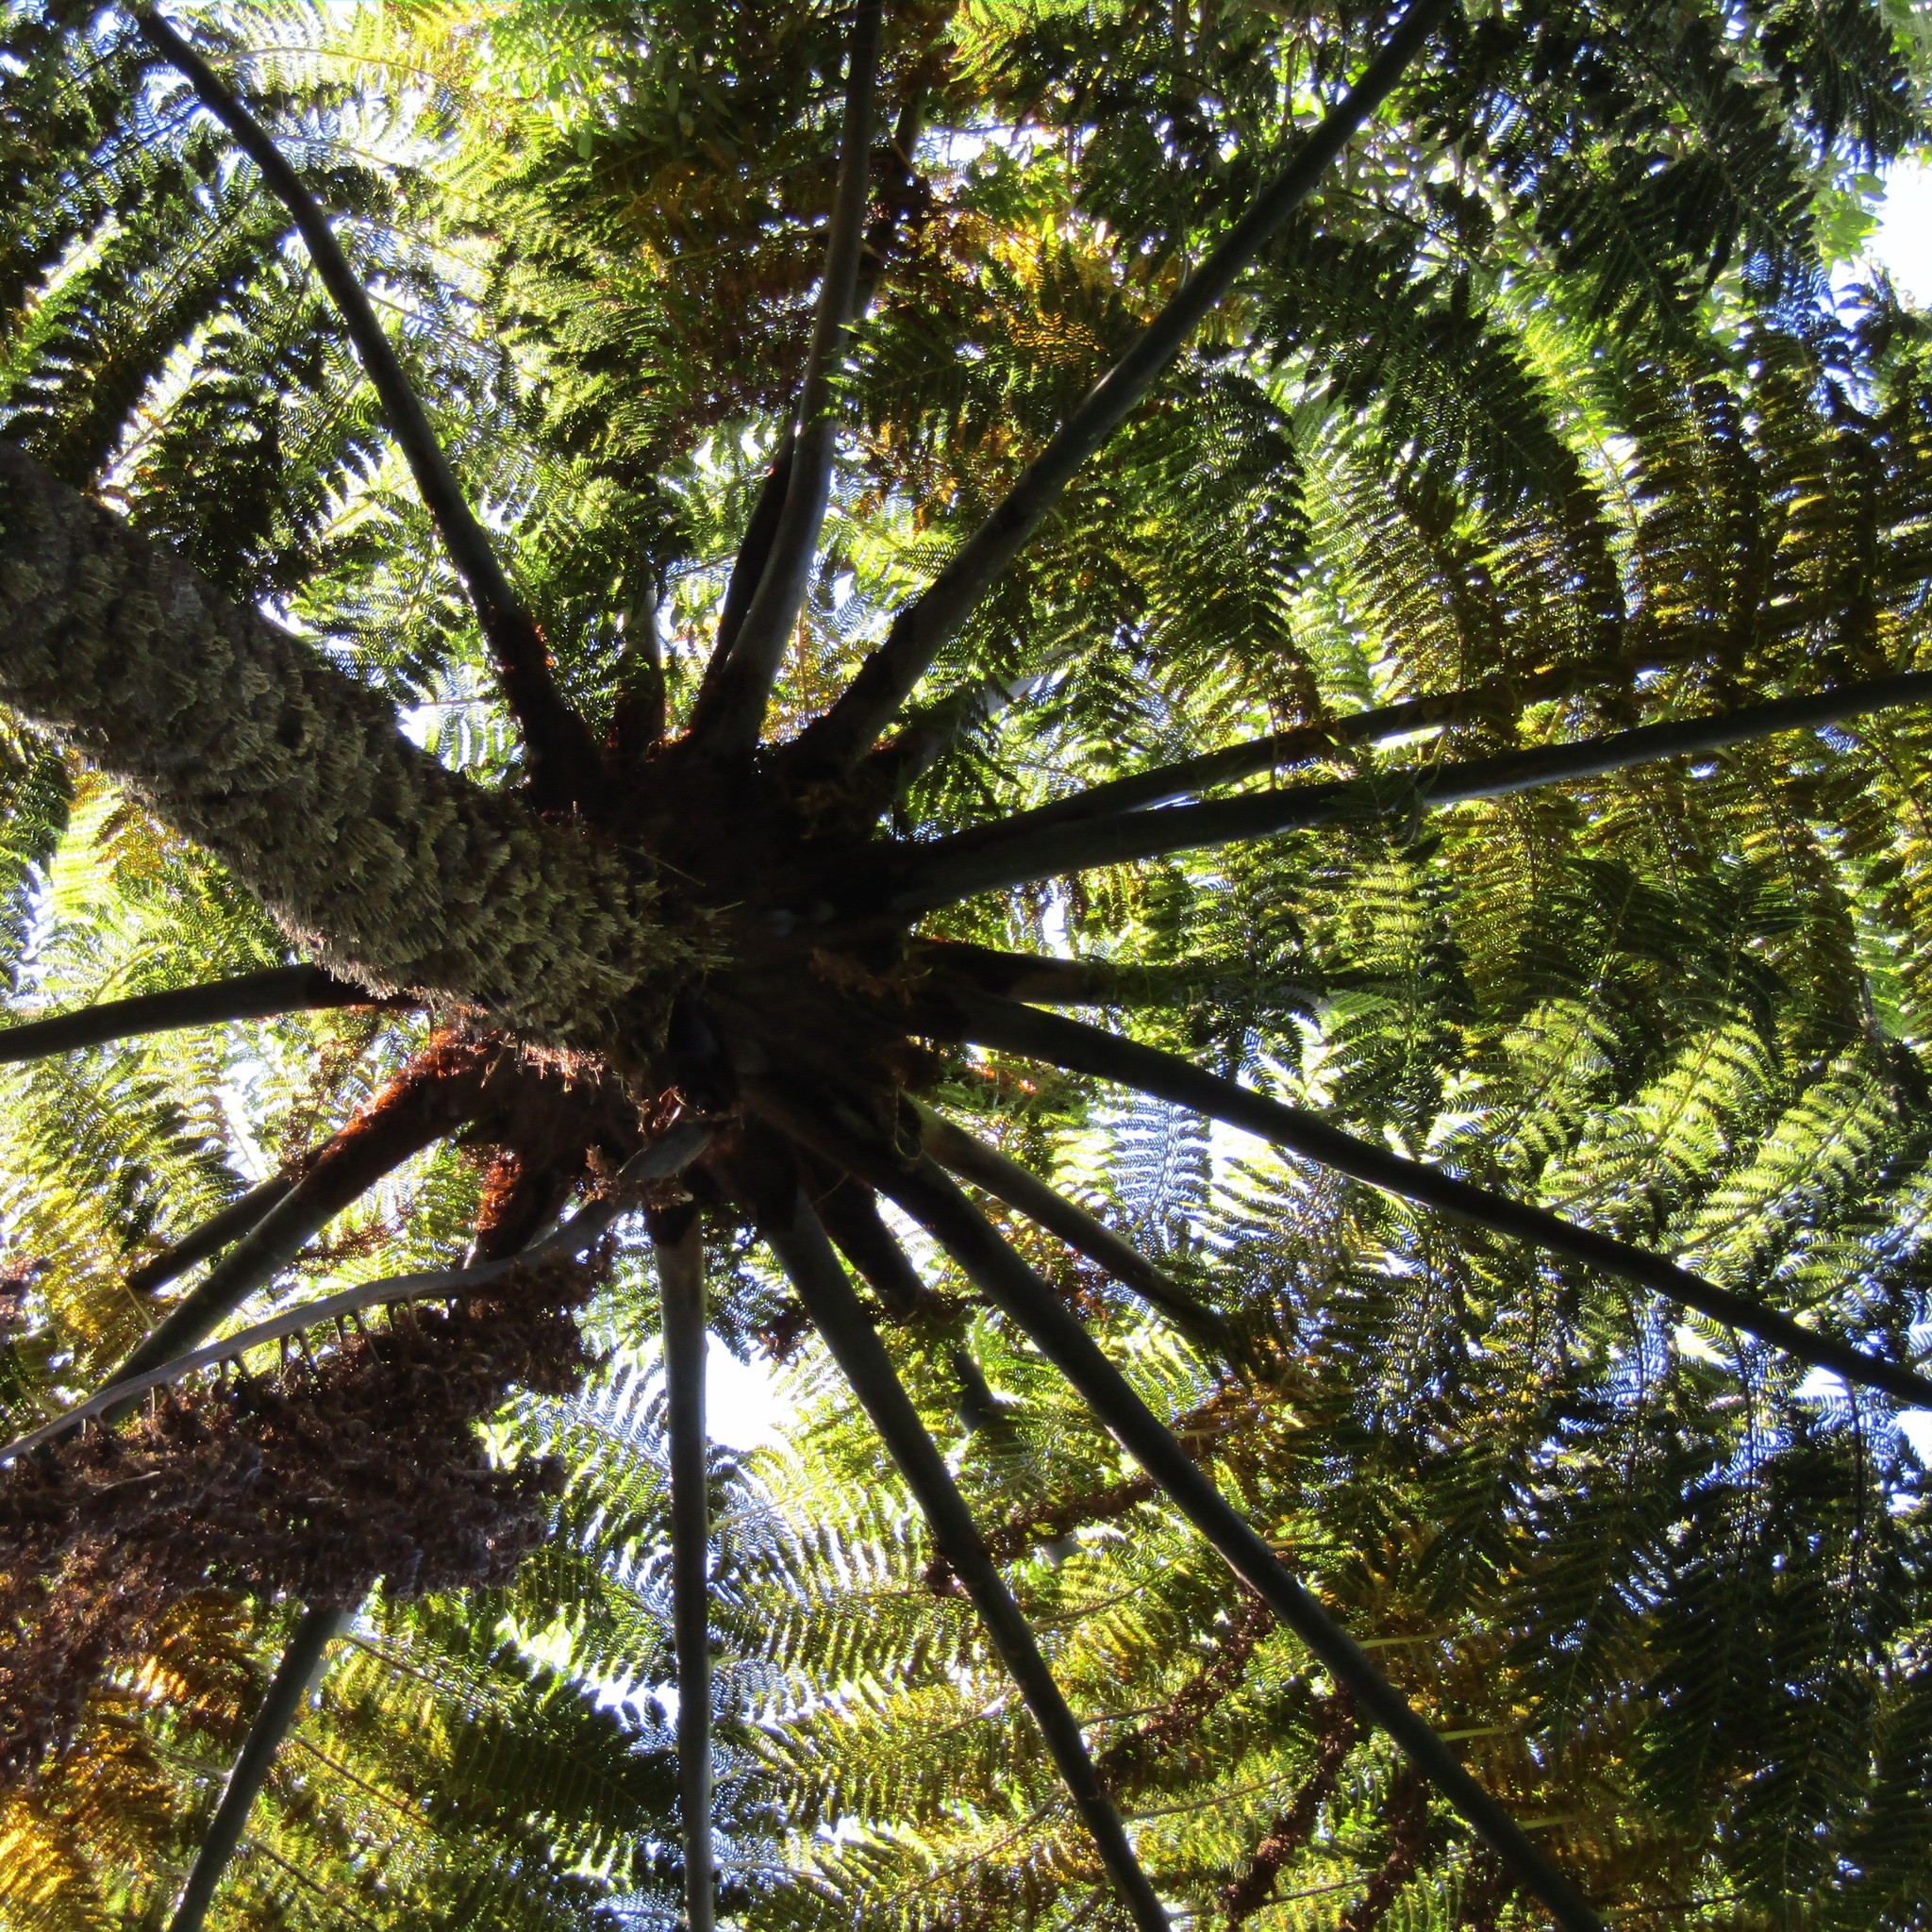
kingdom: Plantae
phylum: Tracheophyta
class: Polypodiopsida
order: Cyatheales
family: Cyatheaceae
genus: Sphaeropteris
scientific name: Sphaeropteris medullaris
